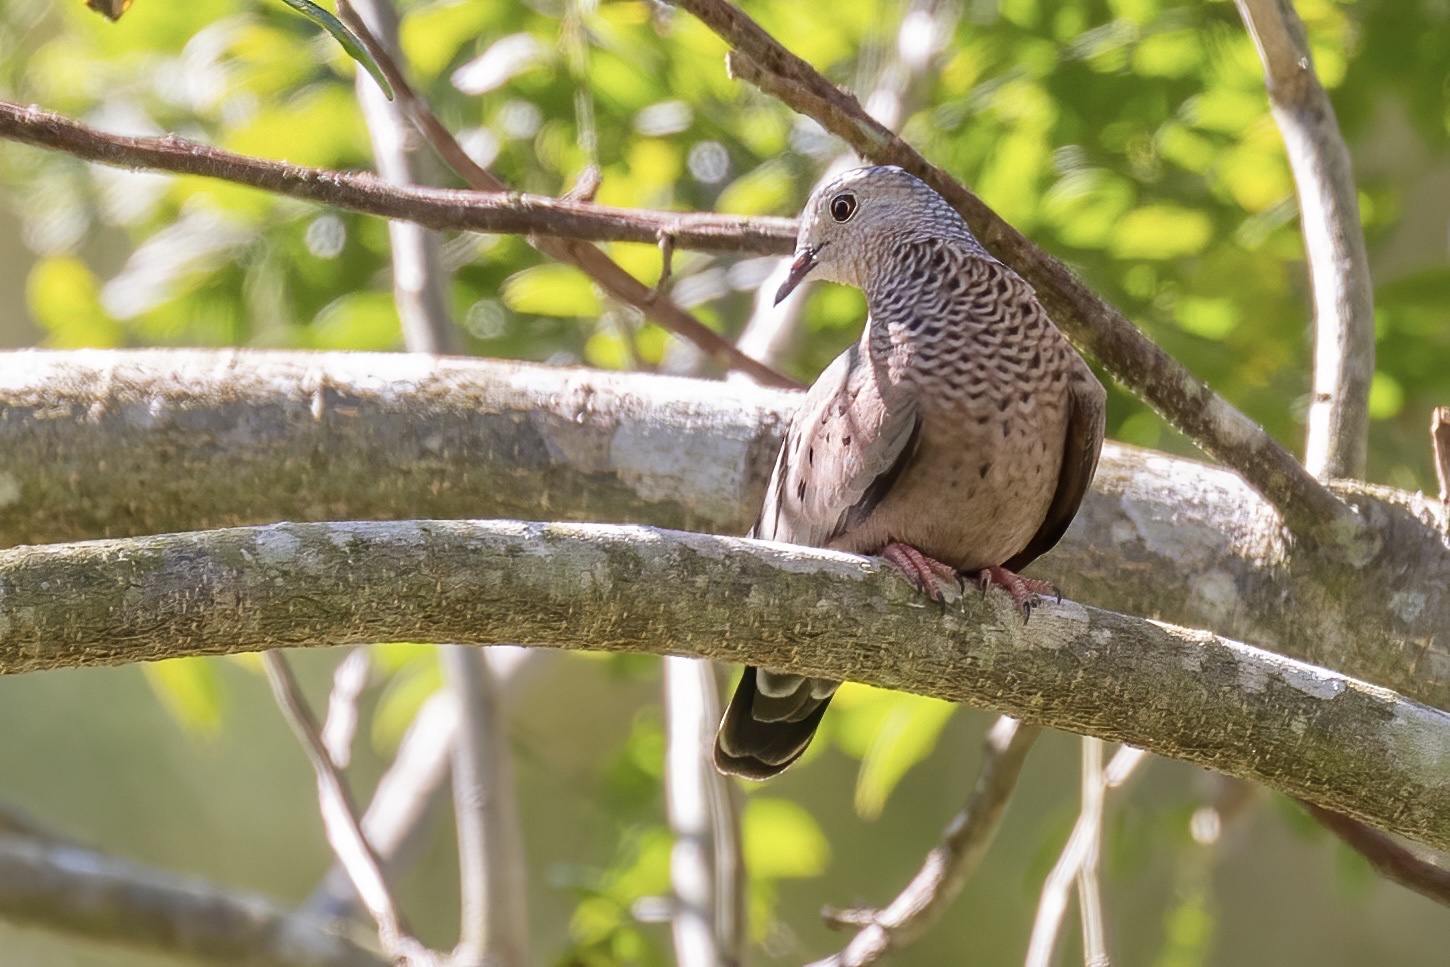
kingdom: Animalia
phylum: Chordata
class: Aves
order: Columbiformes
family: Columbidae
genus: Columbina
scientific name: Columbina passerina
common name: Common ground-dove
